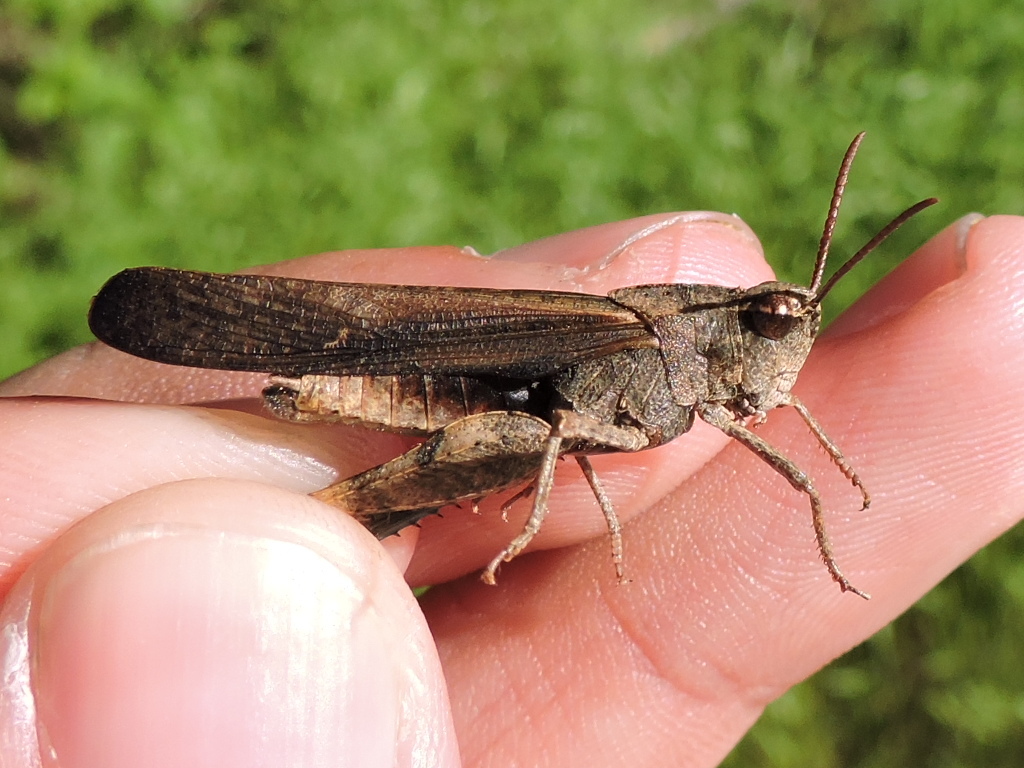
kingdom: Animalia
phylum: Arthropoda
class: Insecta
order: Orthoptera
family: Acrididae
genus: Chortophaga
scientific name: Chortophaga viridifasciata
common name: Green-striped grasshopper
